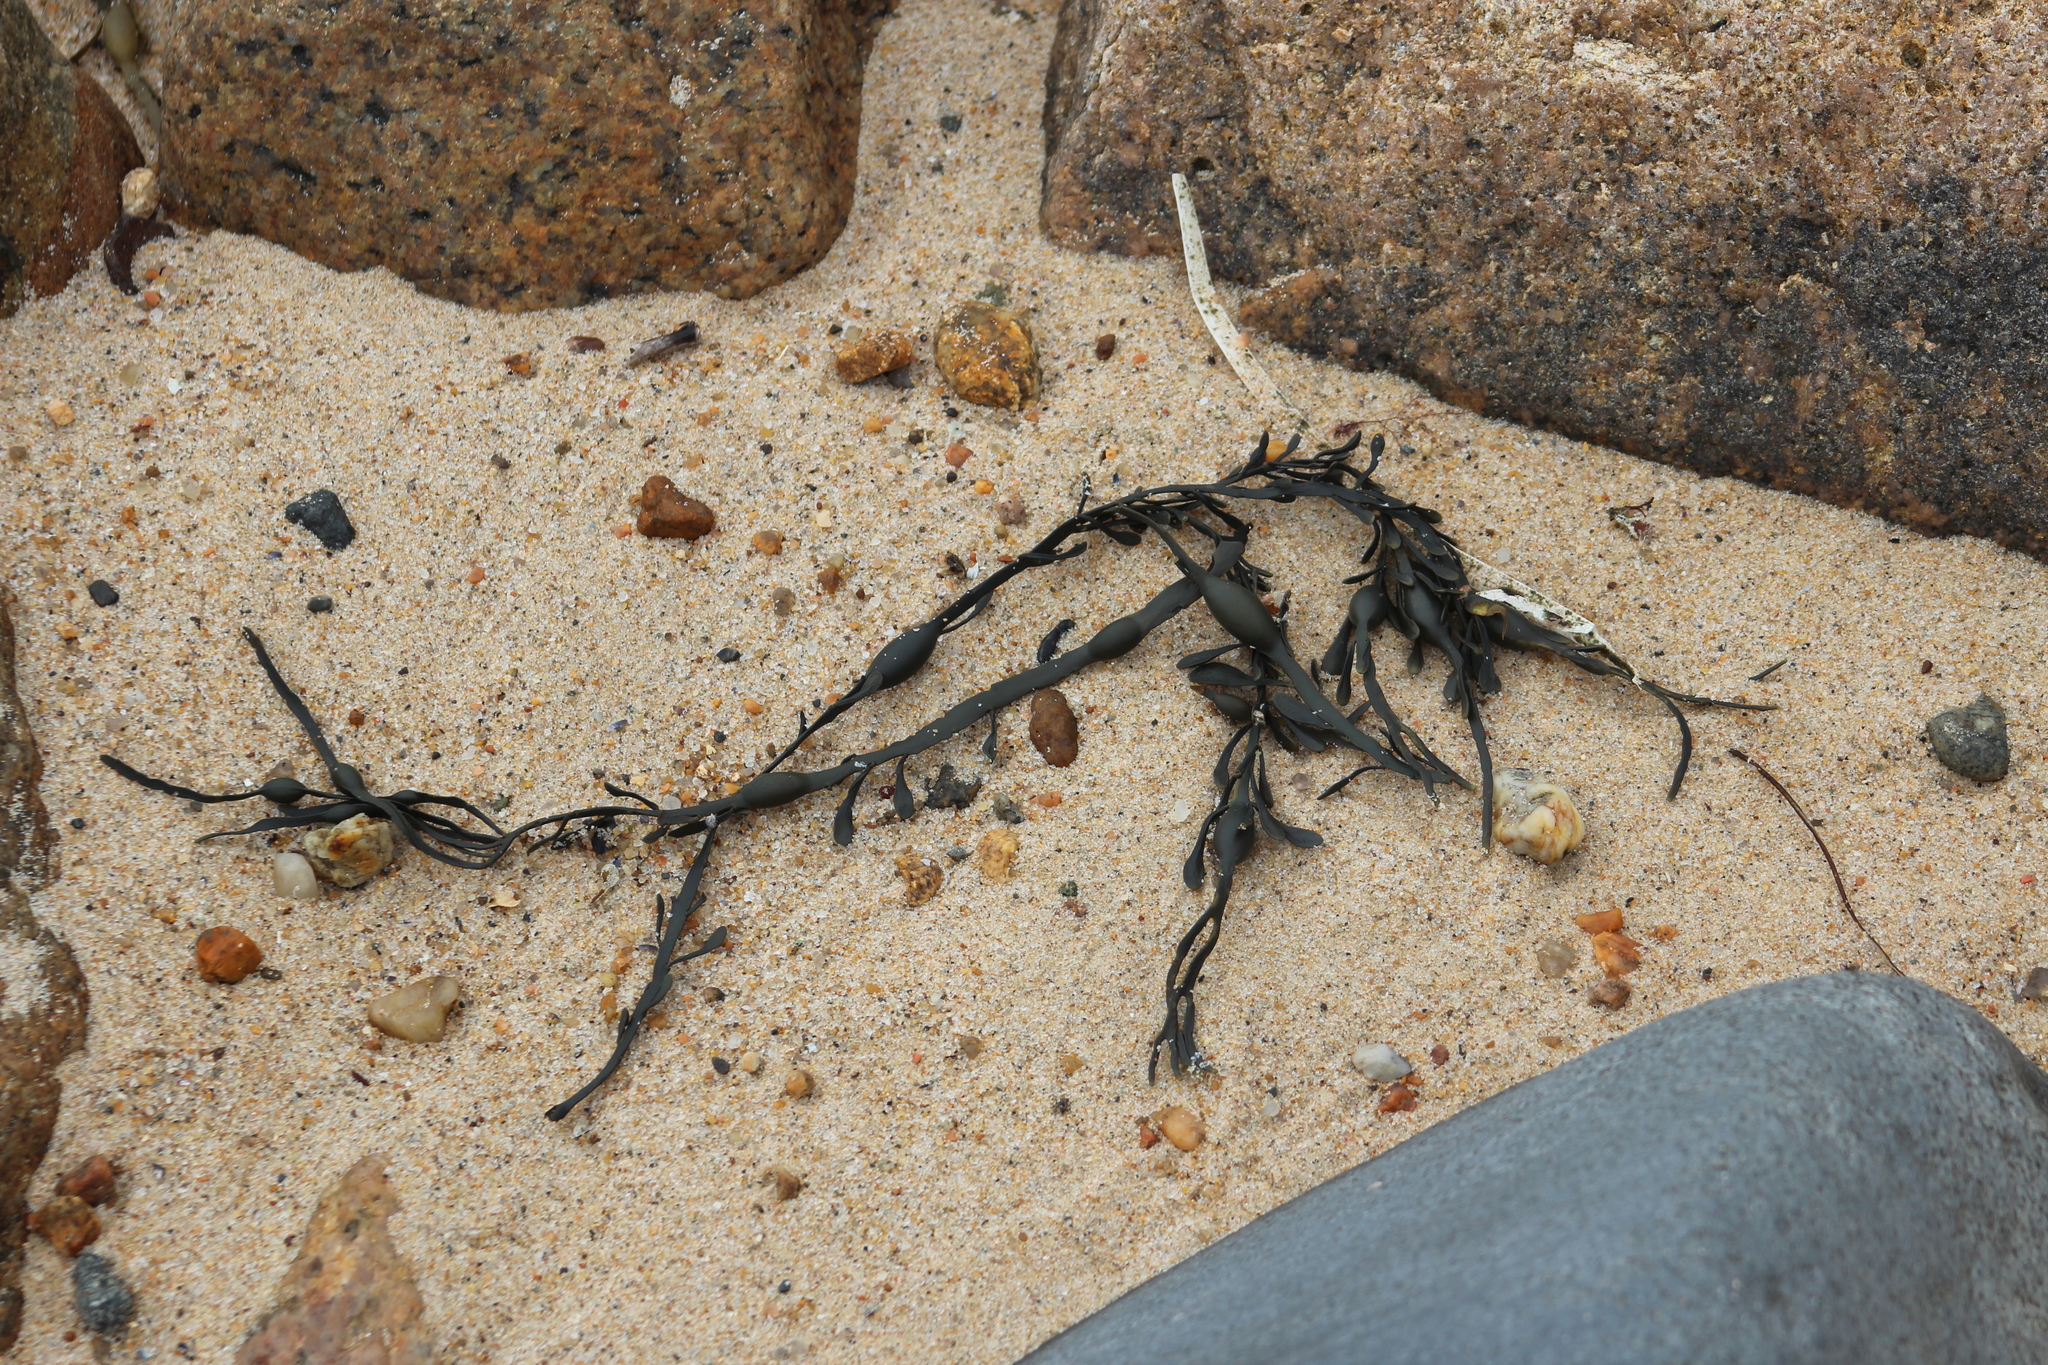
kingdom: Chromista
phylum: Ochrophyta
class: Phaeophyceae
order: Fucales
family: Fucaceae
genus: Ascophyllum
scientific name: Ascophyllum nodosum
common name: Knotted wrack
